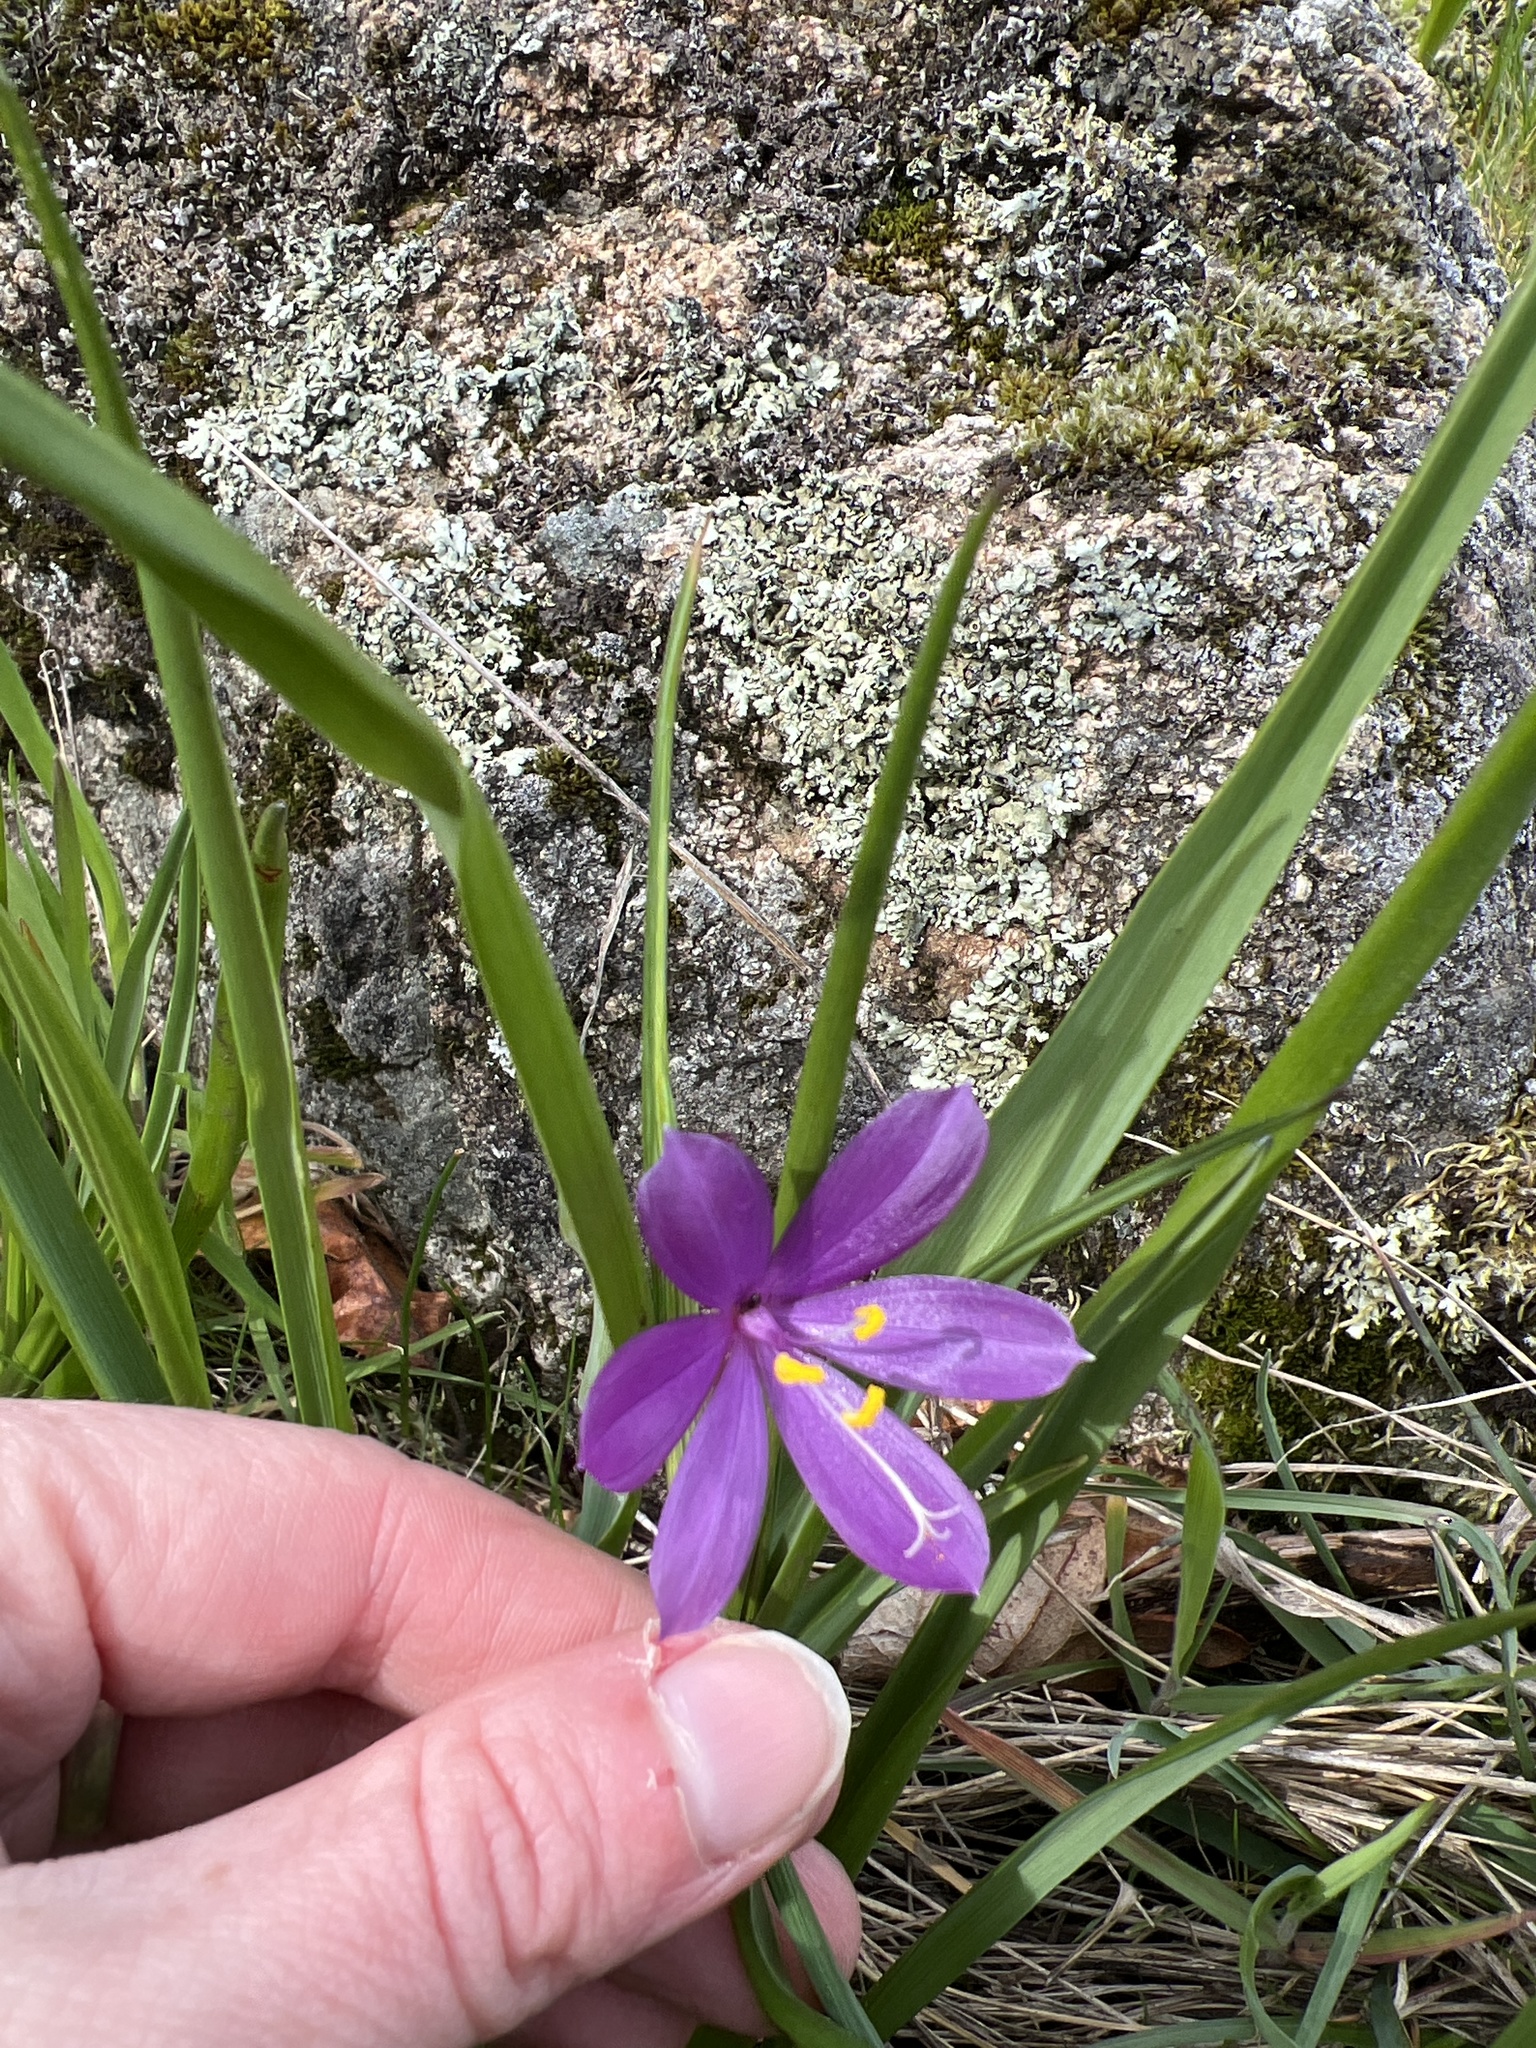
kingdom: Plantae
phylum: Tracheophyta
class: Liliopsida
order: Asparagales
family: Iridaceae
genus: Olsynium
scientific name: Olsynium douglasii
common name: Douglas' grasswidow
